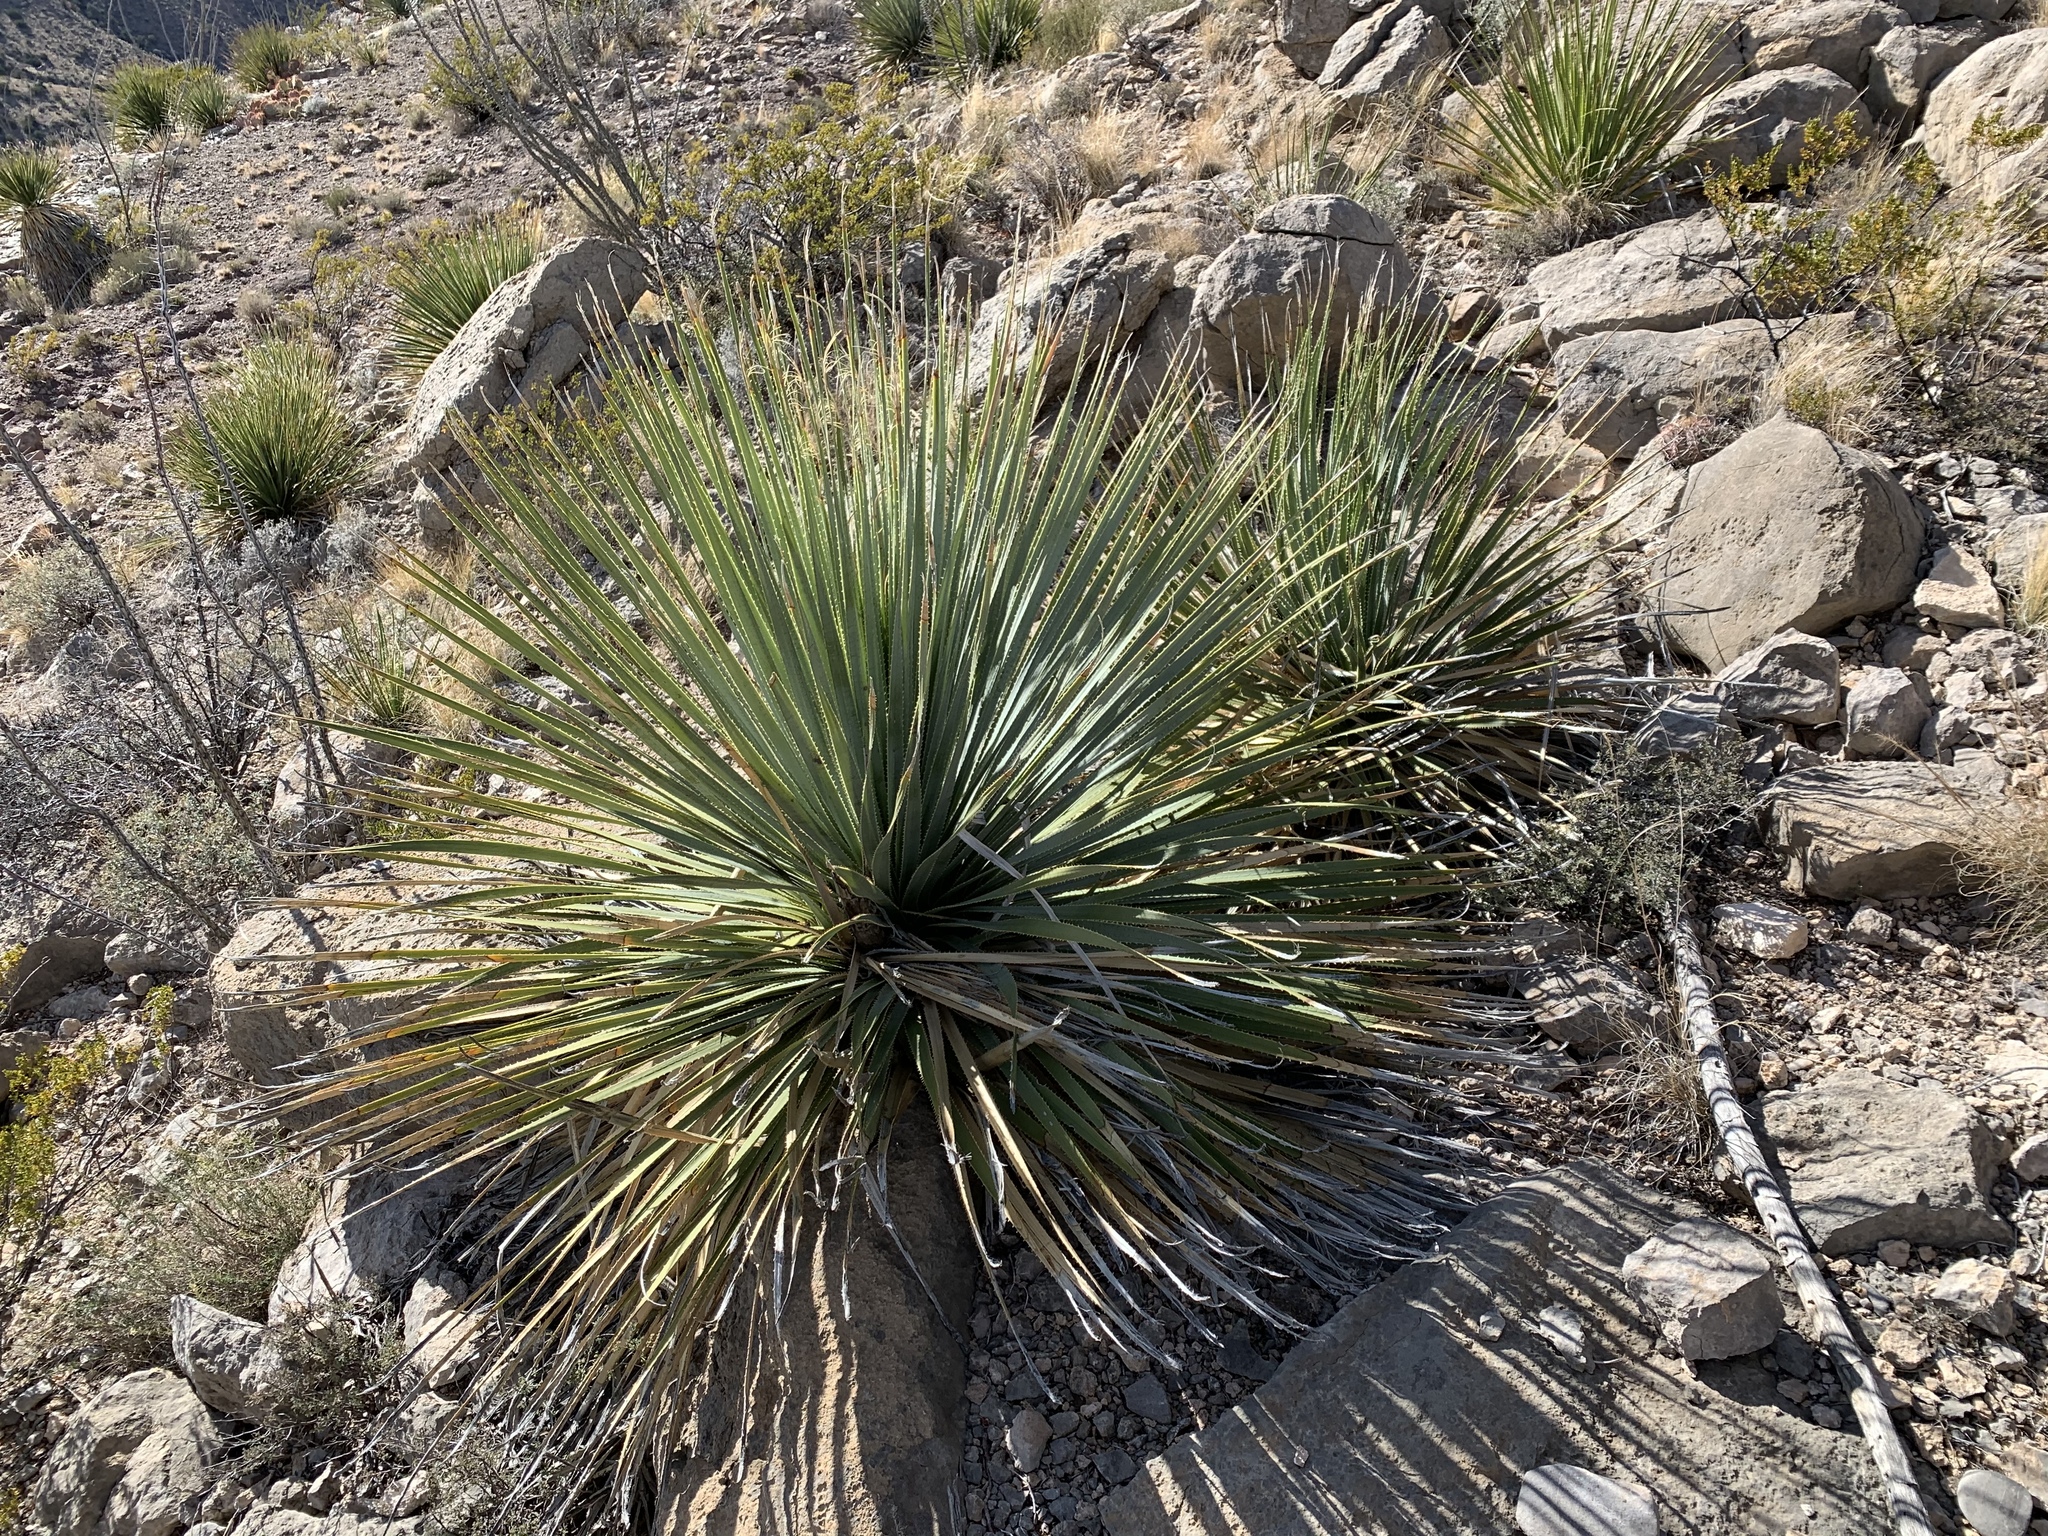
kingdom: Plantae
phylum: Tracheophyta
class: Liliopsida
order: Asparagales
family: Asparagaceae
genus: Dasylirion
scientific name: Dasylirion wheeleri
